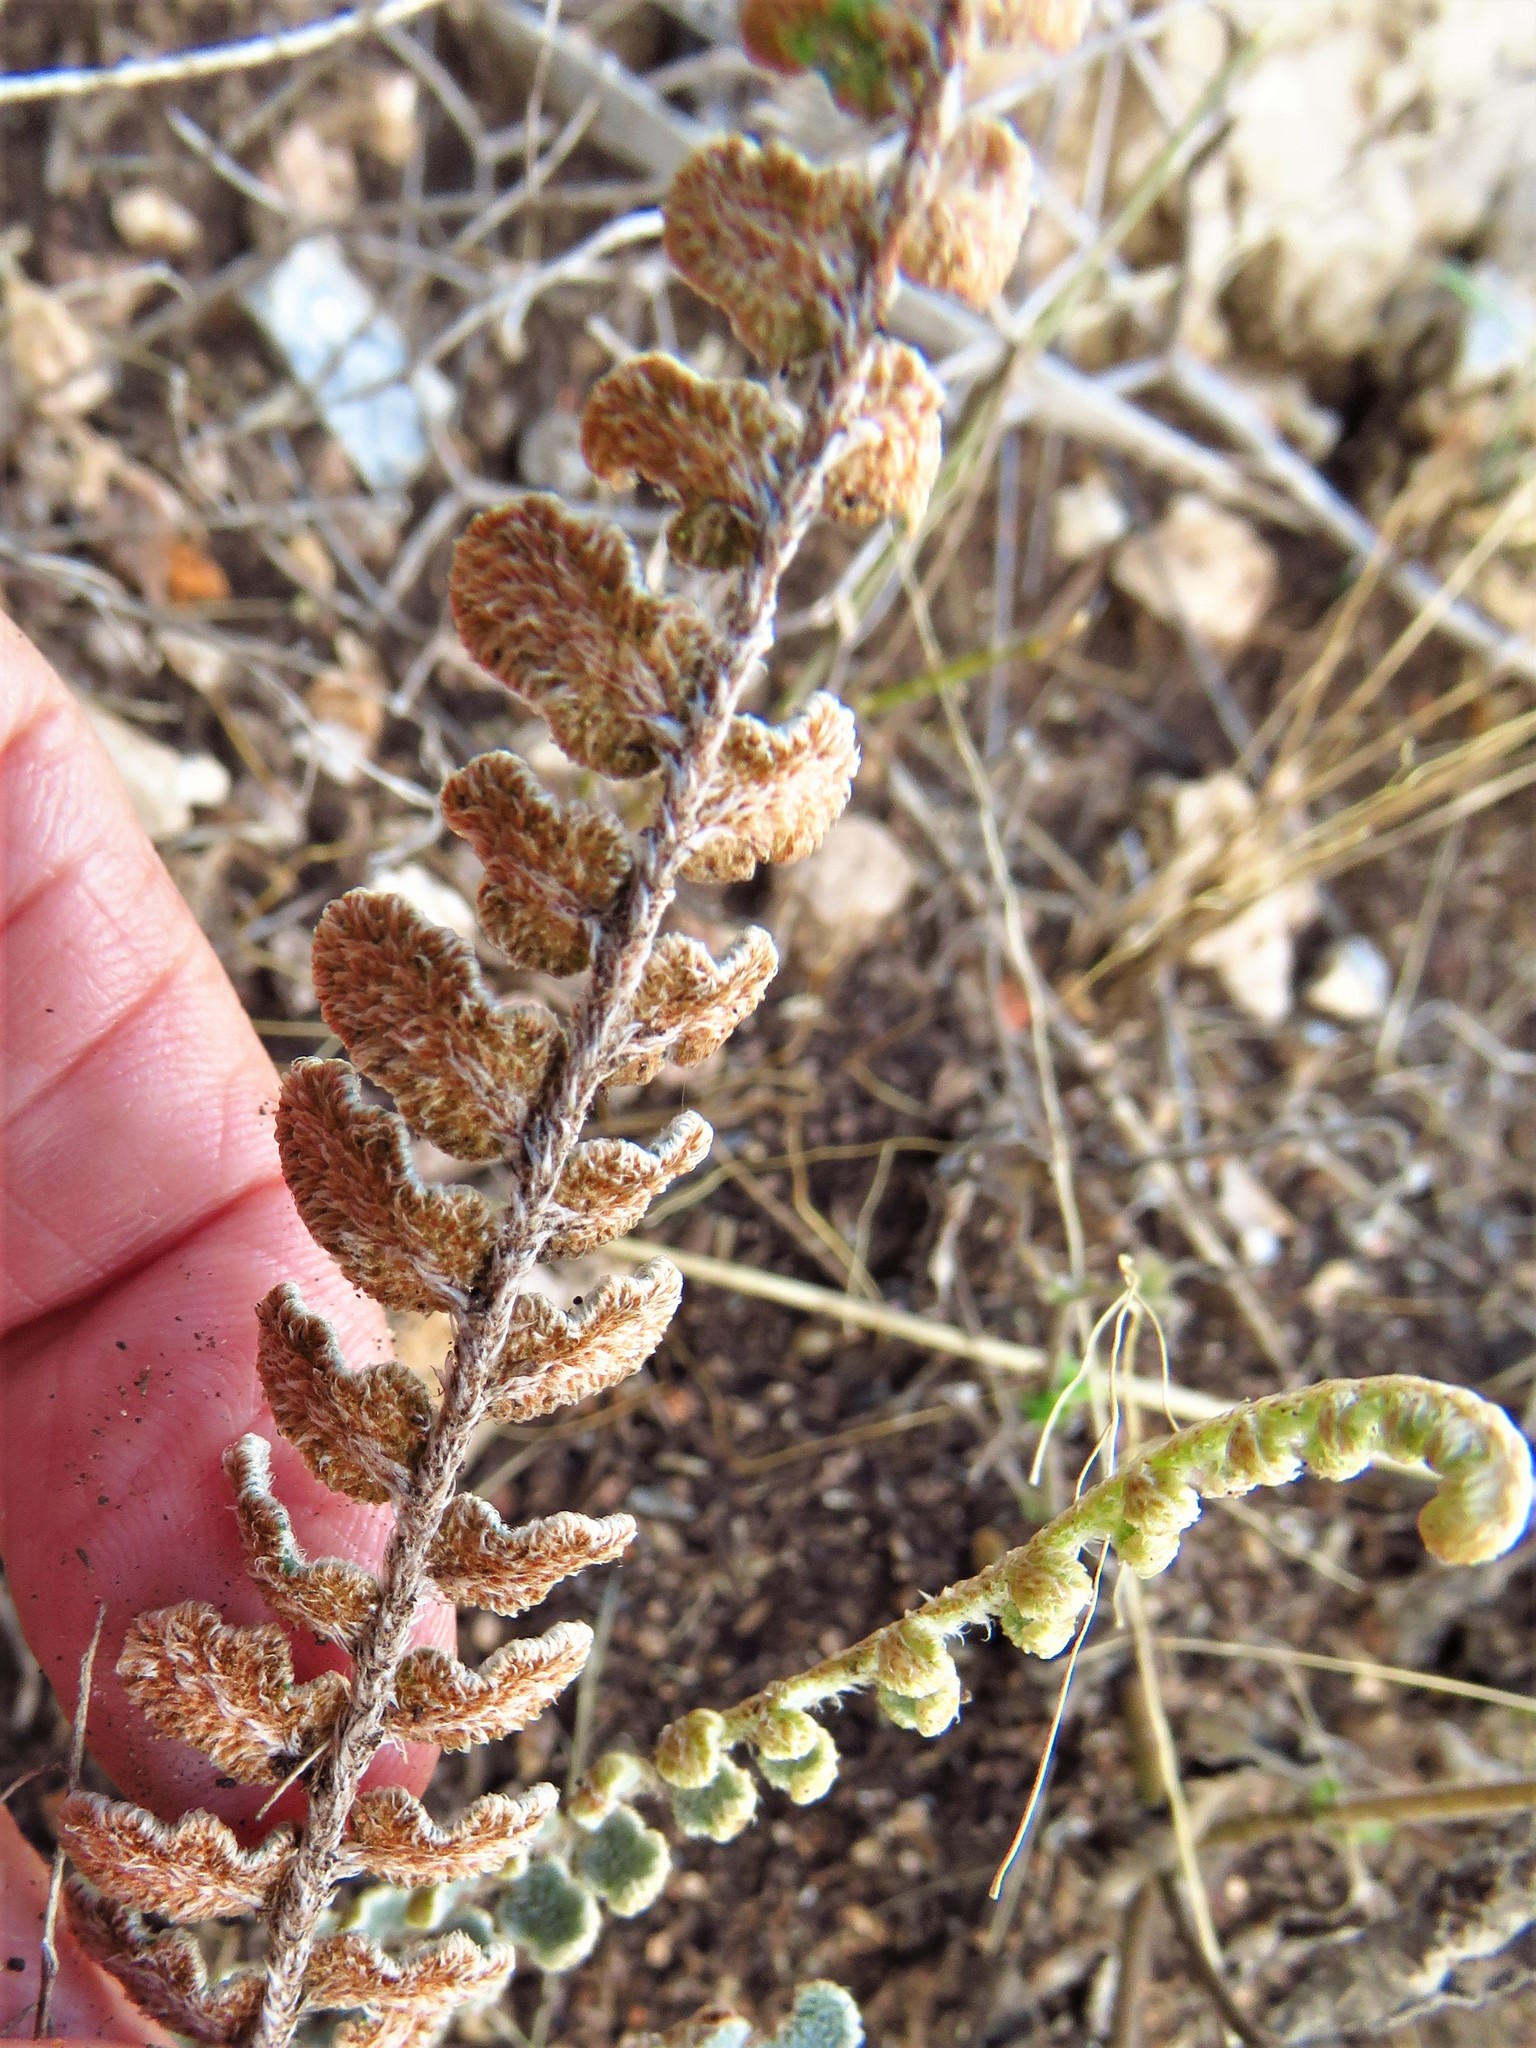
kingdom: Plantae
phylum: Tracheophyta
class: Polypodiopsida
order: Polypodiales
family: Pteridaceae
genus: Astrolepis
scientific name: Astrolepis cochisensis
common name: Scaly cloak fern
